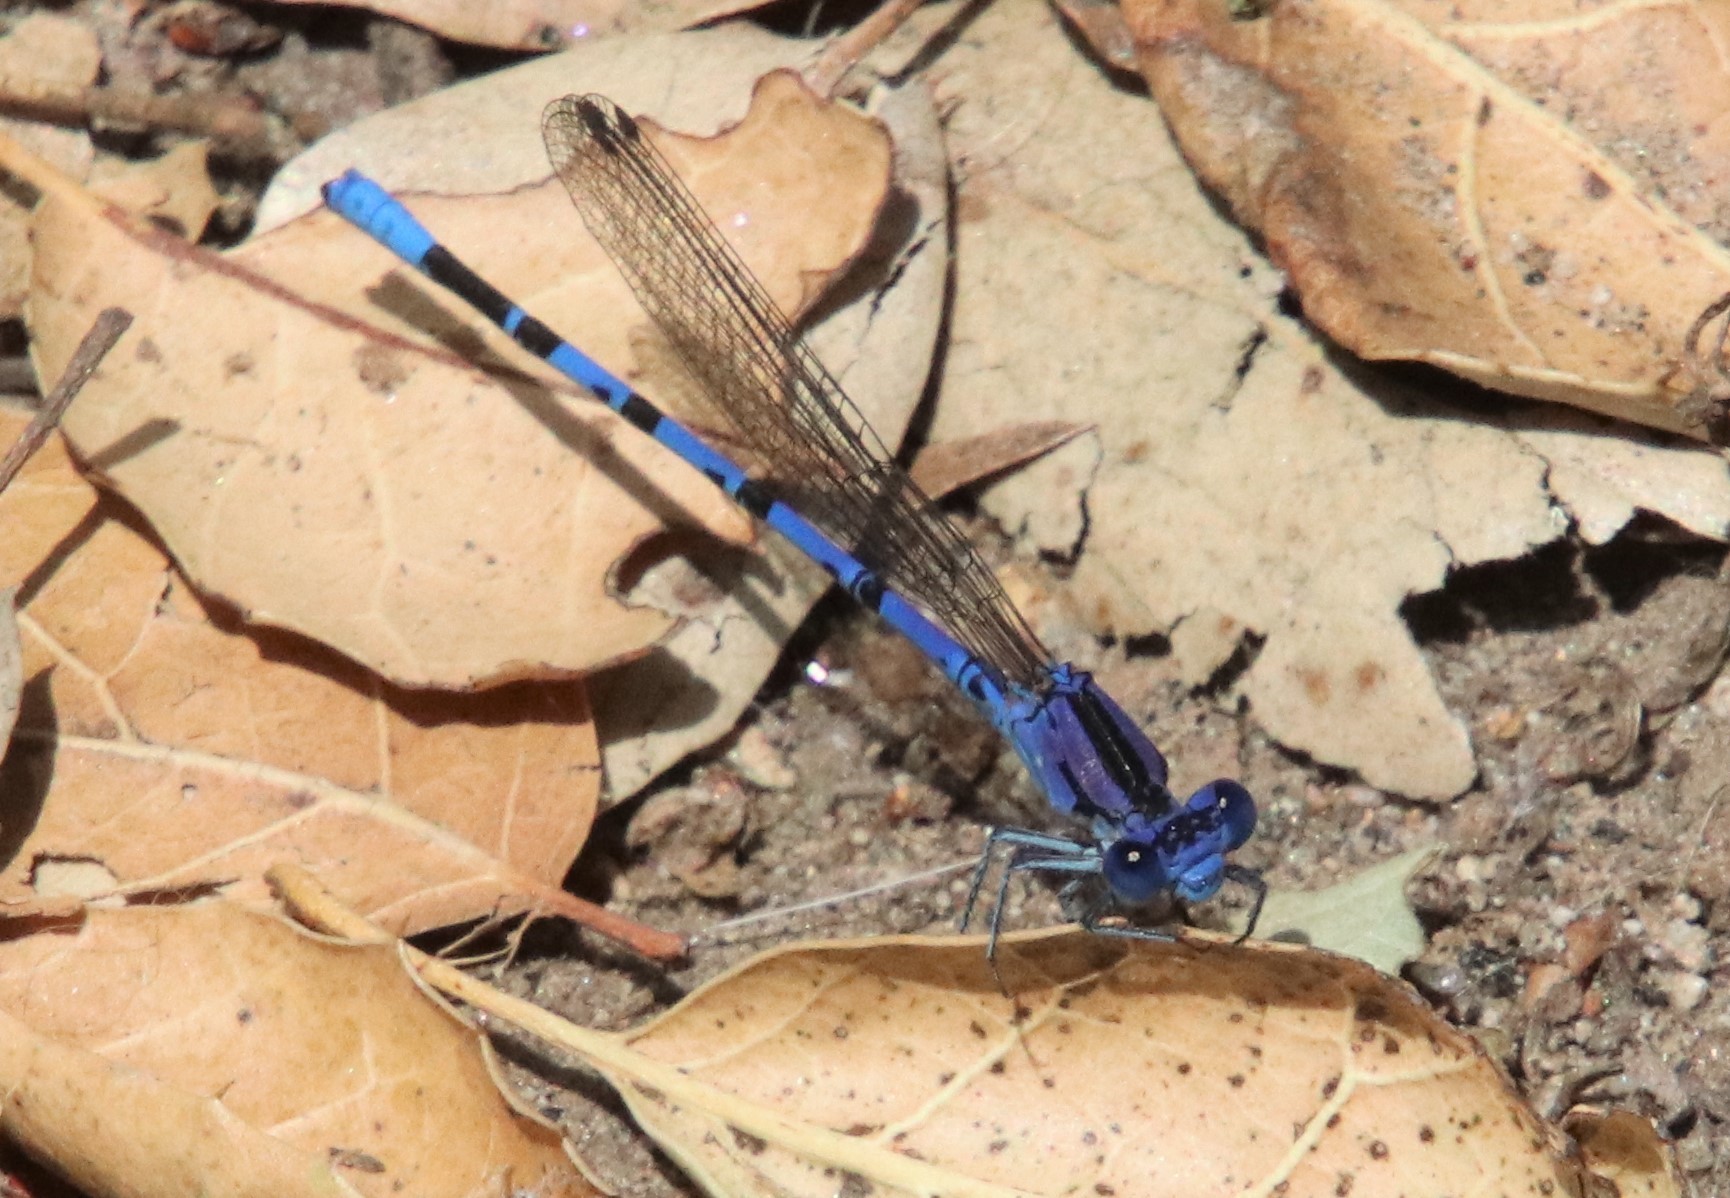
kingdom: Animalia
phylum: Arthropoda
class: Insecta
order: Odonata
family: Coenagrionidae
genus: Argia
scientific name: Argia vivida
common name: Vivid dancer
